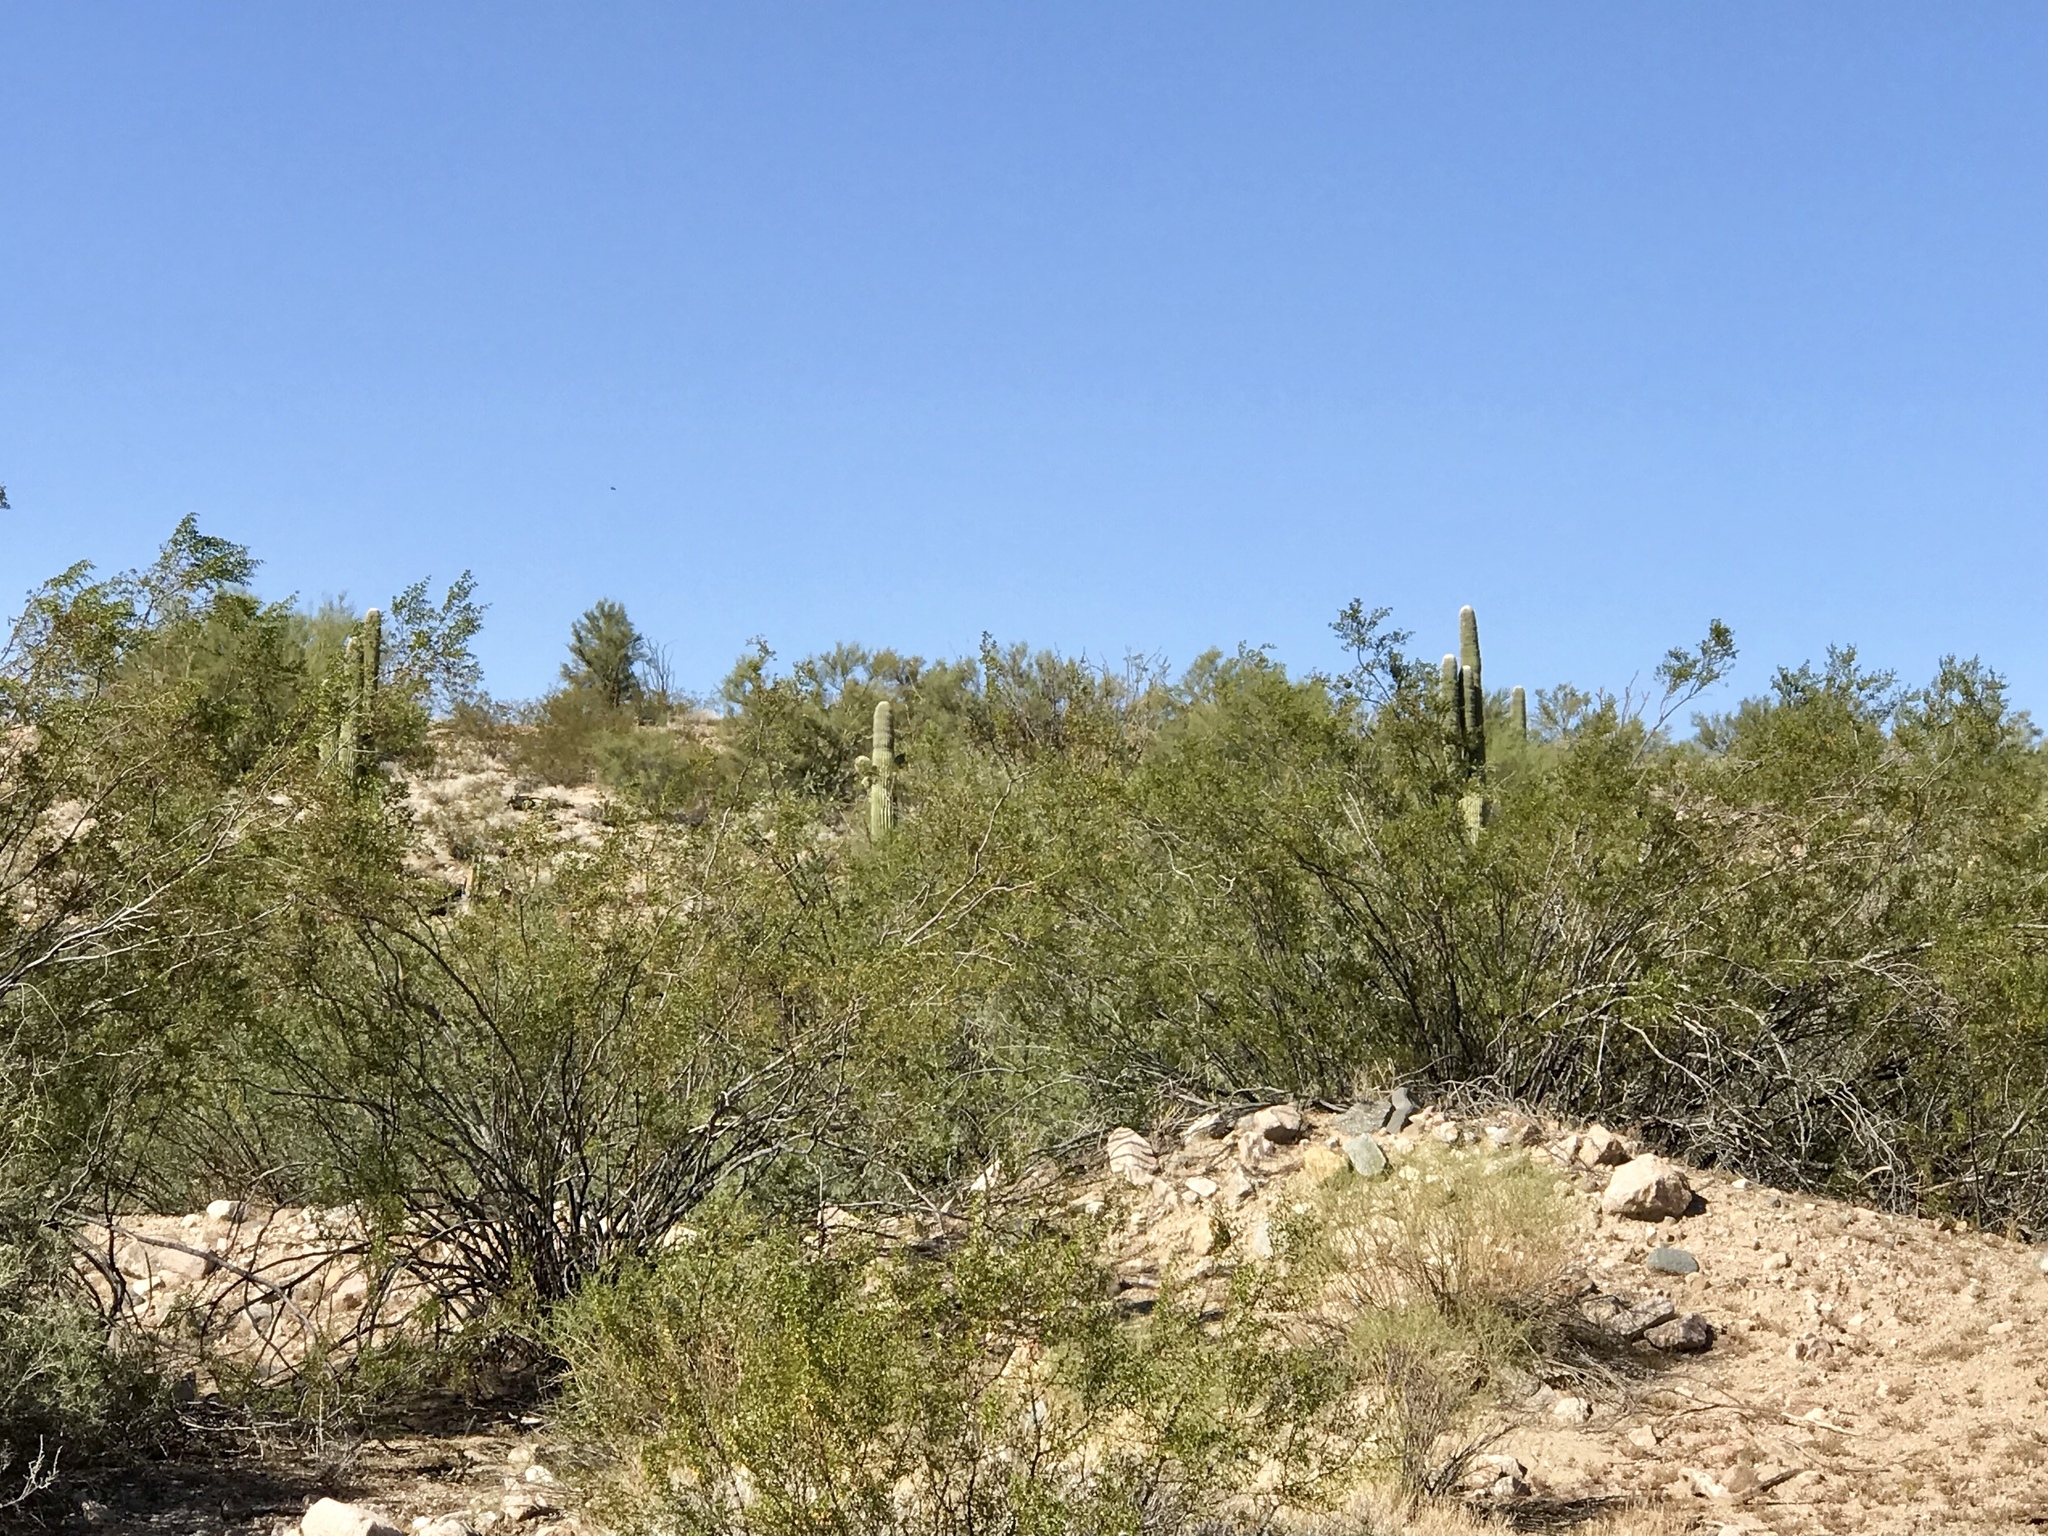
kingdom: Plantae
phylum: Tracheophyta
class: Magnoliopsida
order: Zygophyllales
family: Zygophyllaceae
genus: Larrea
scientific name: Larrea tridentata
